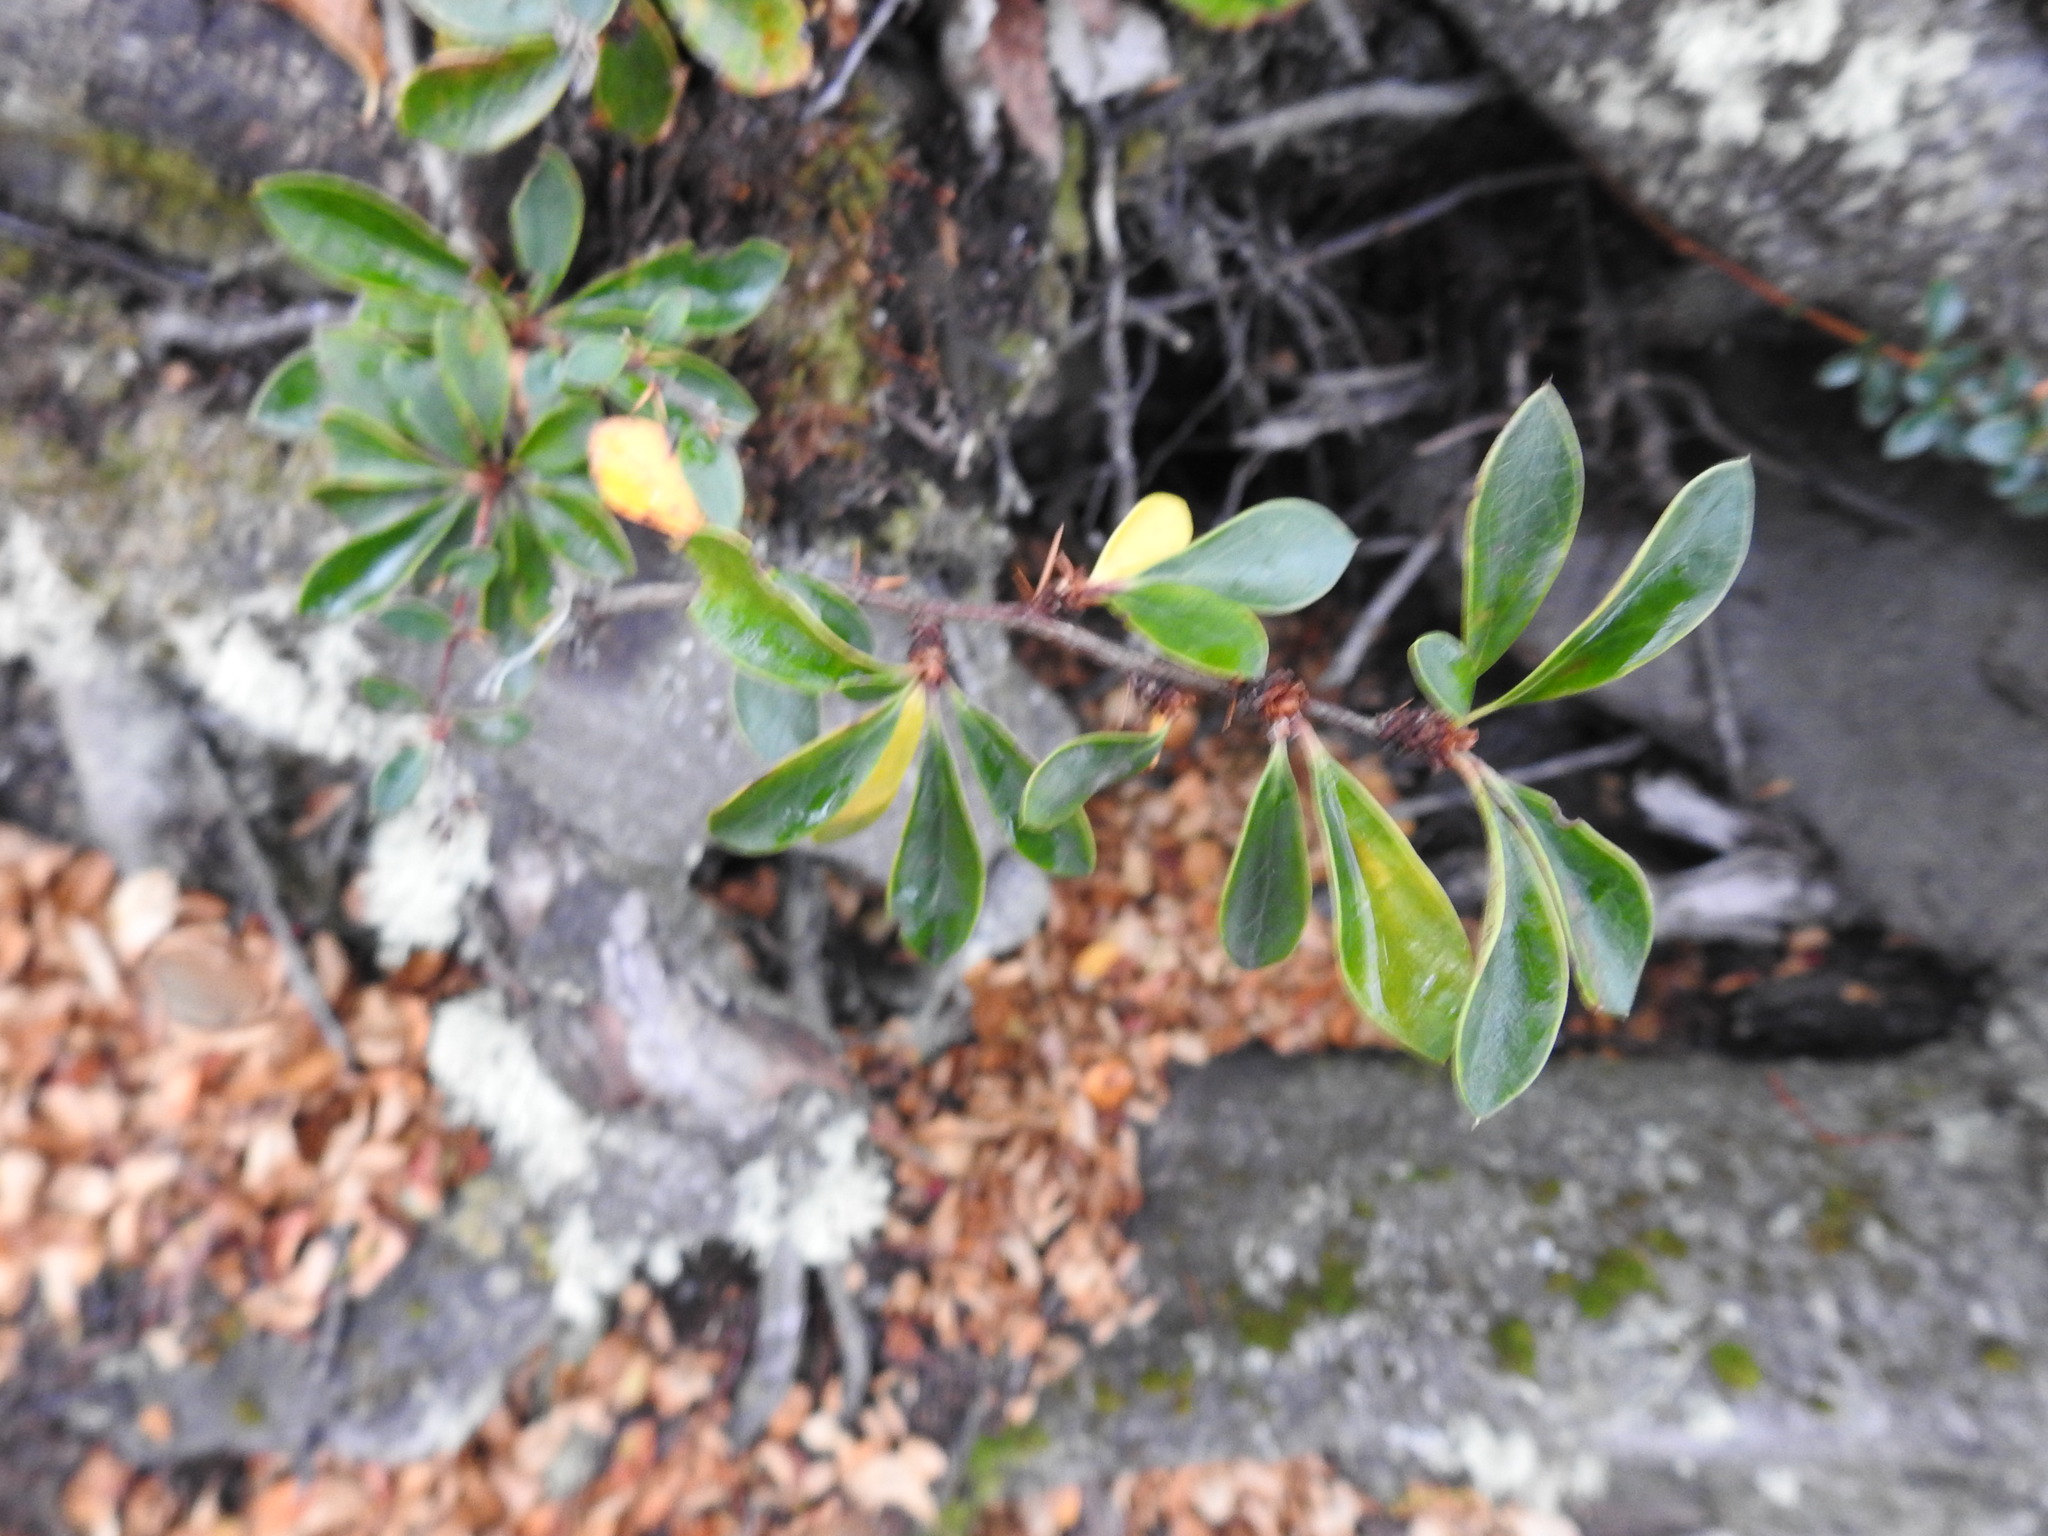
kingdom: Plantae
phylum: Tracheophyta
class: Magnoliopsida
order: Ranunculales
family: Berberidaceae
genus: Berberis
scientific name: Berberis microphylla
